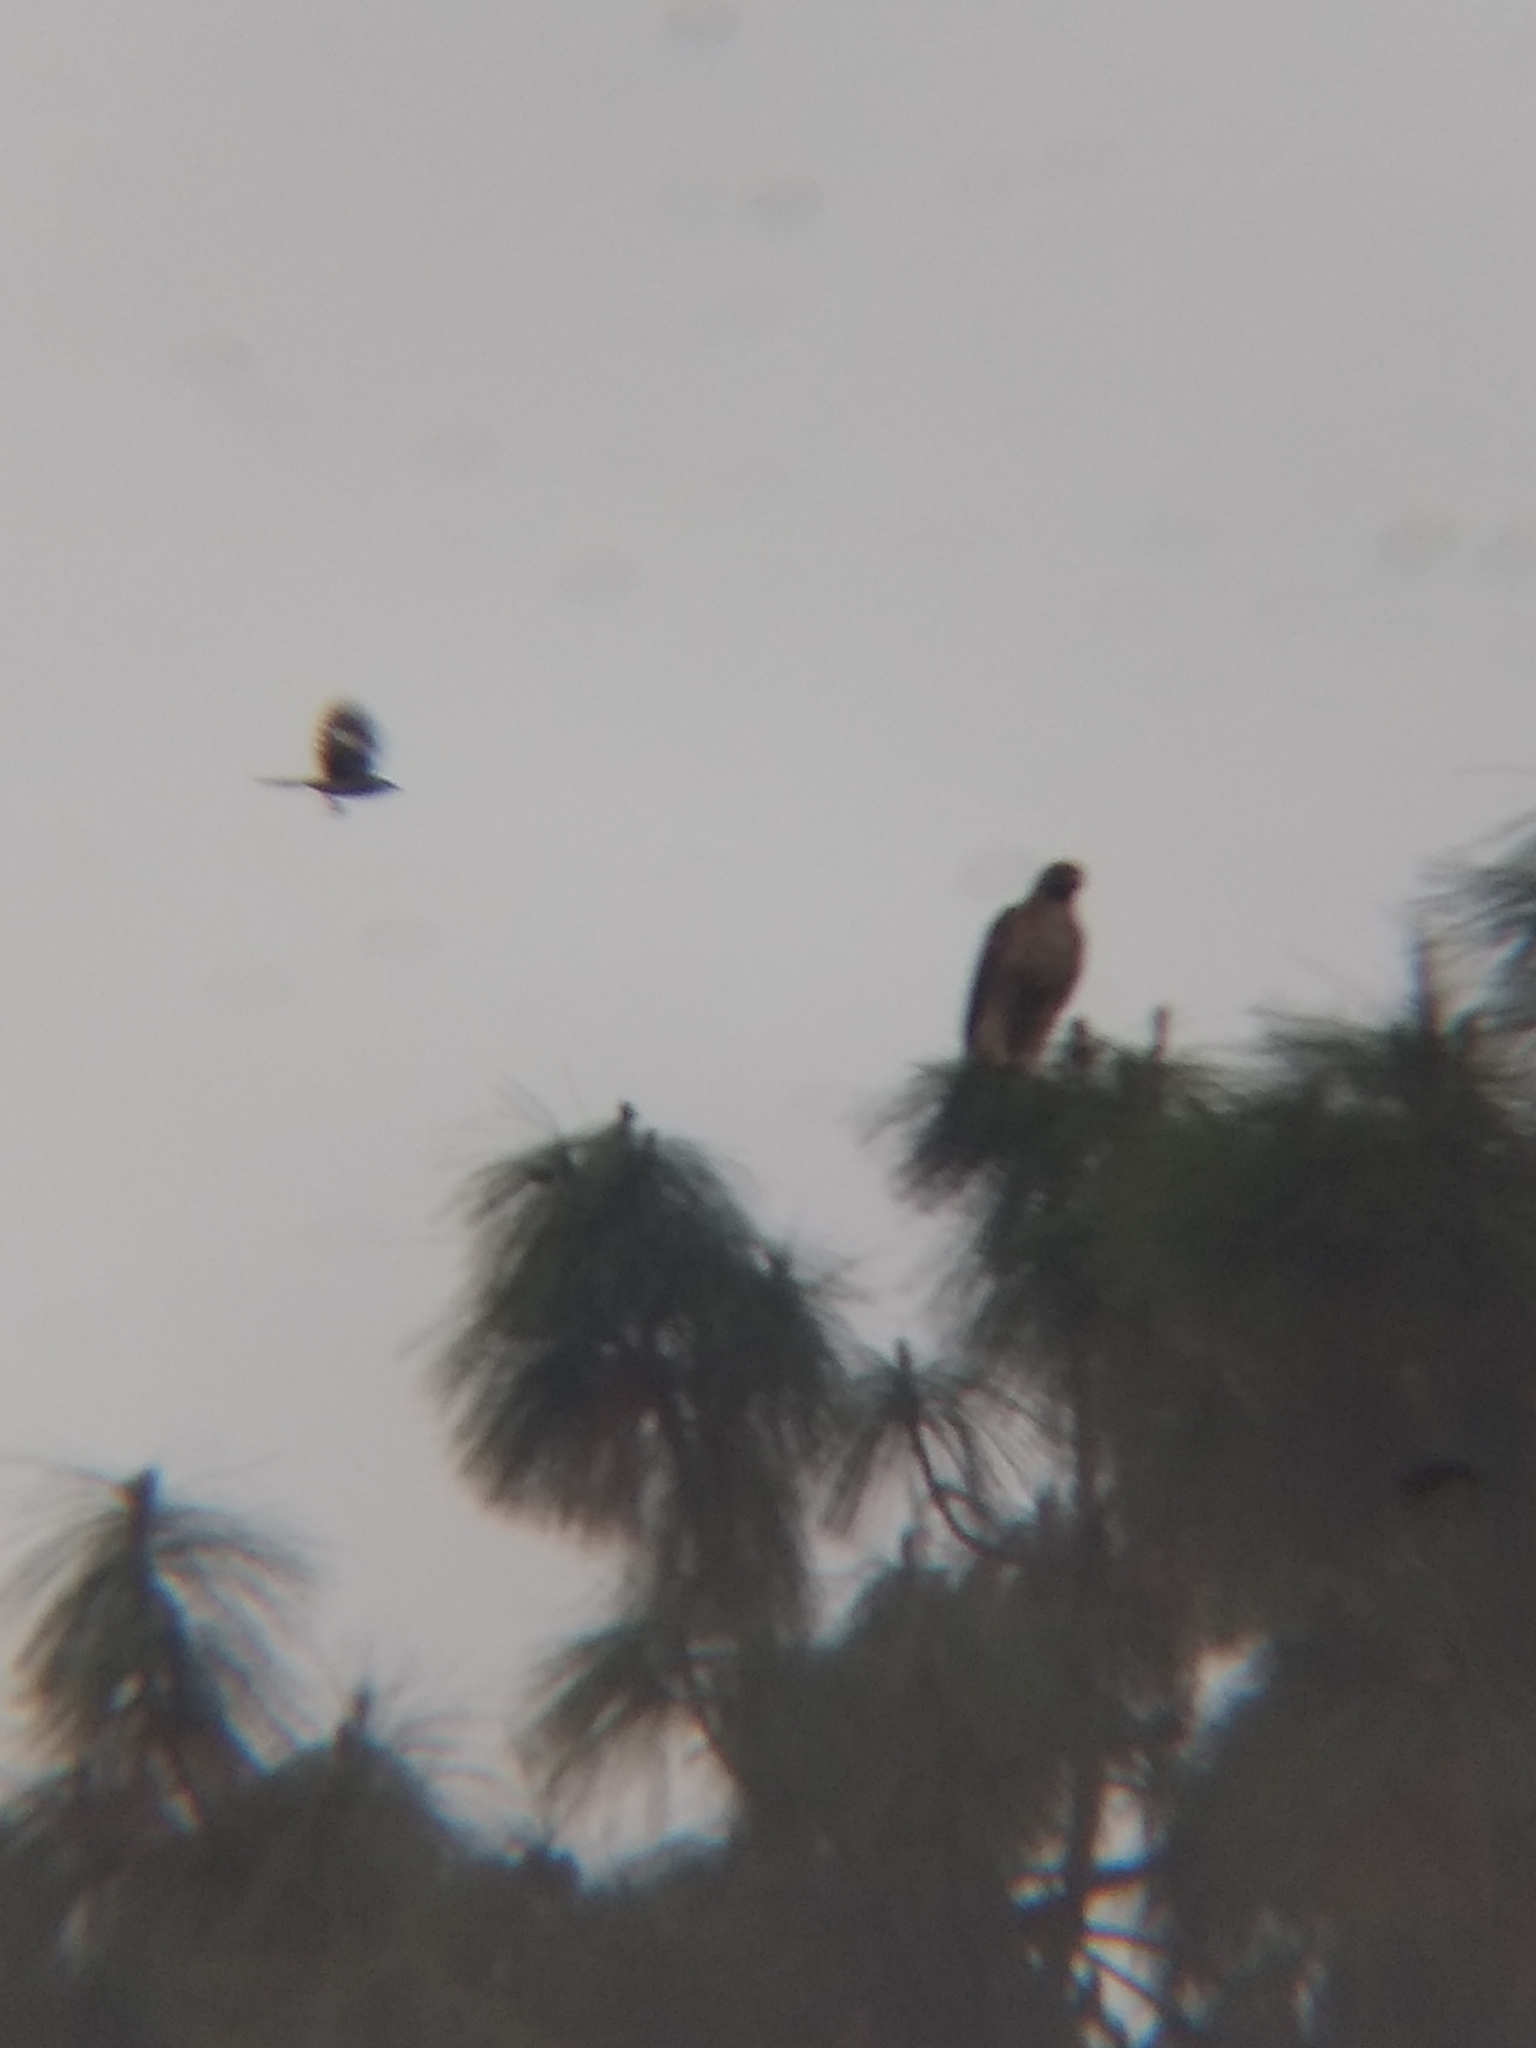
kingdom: Animalia
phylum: Chordata
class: Aves
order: Passeriformes
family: Mimidae
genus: Mimus
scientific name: Mimus polyglottos
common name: Northern mockingbird
